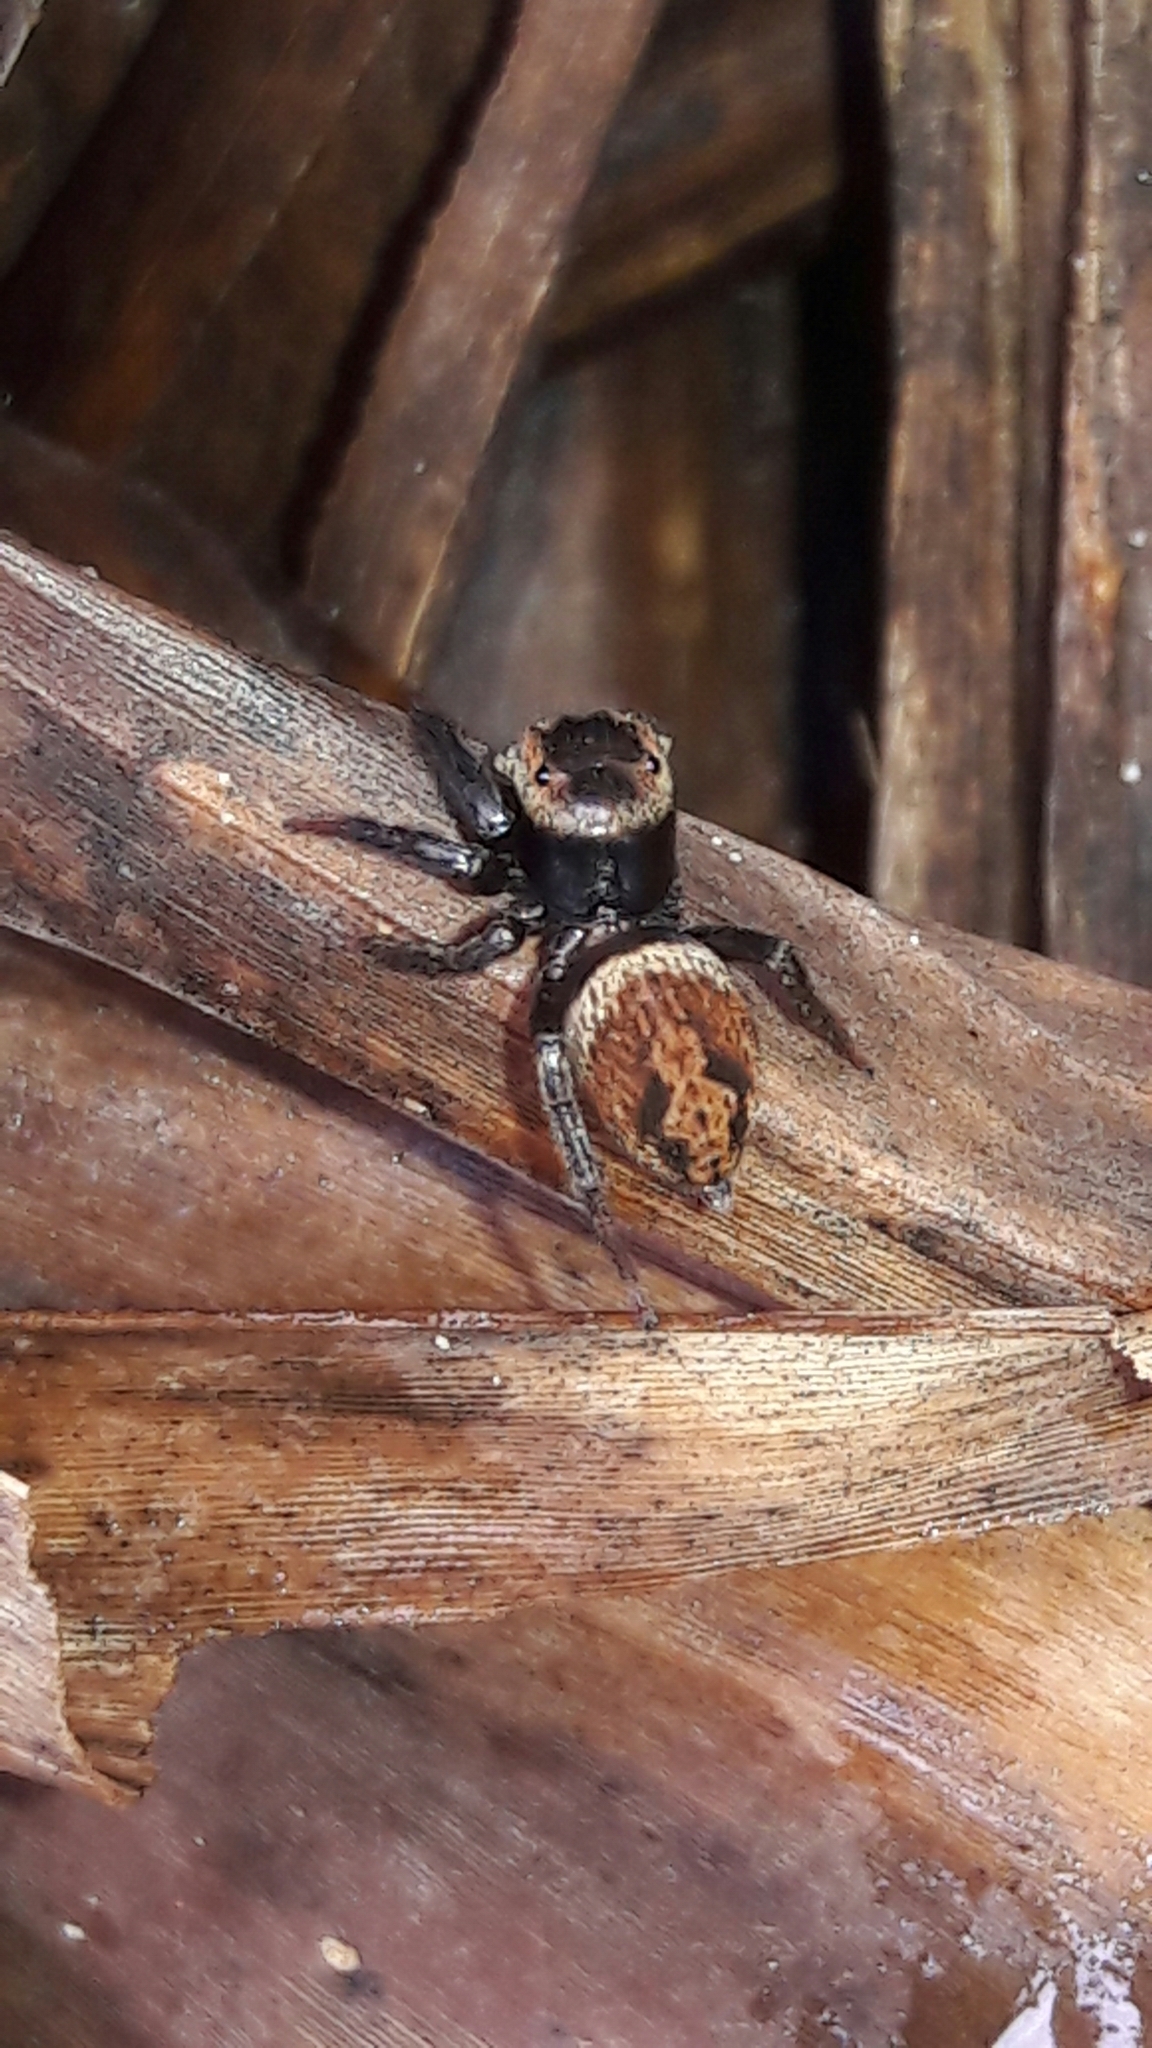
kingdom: Animalia
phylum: Arthropoda
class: Arachnida
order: Araneae
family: Salticidae
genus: Hasarius
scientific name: Hasarius adansoni
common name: Jumping spider
